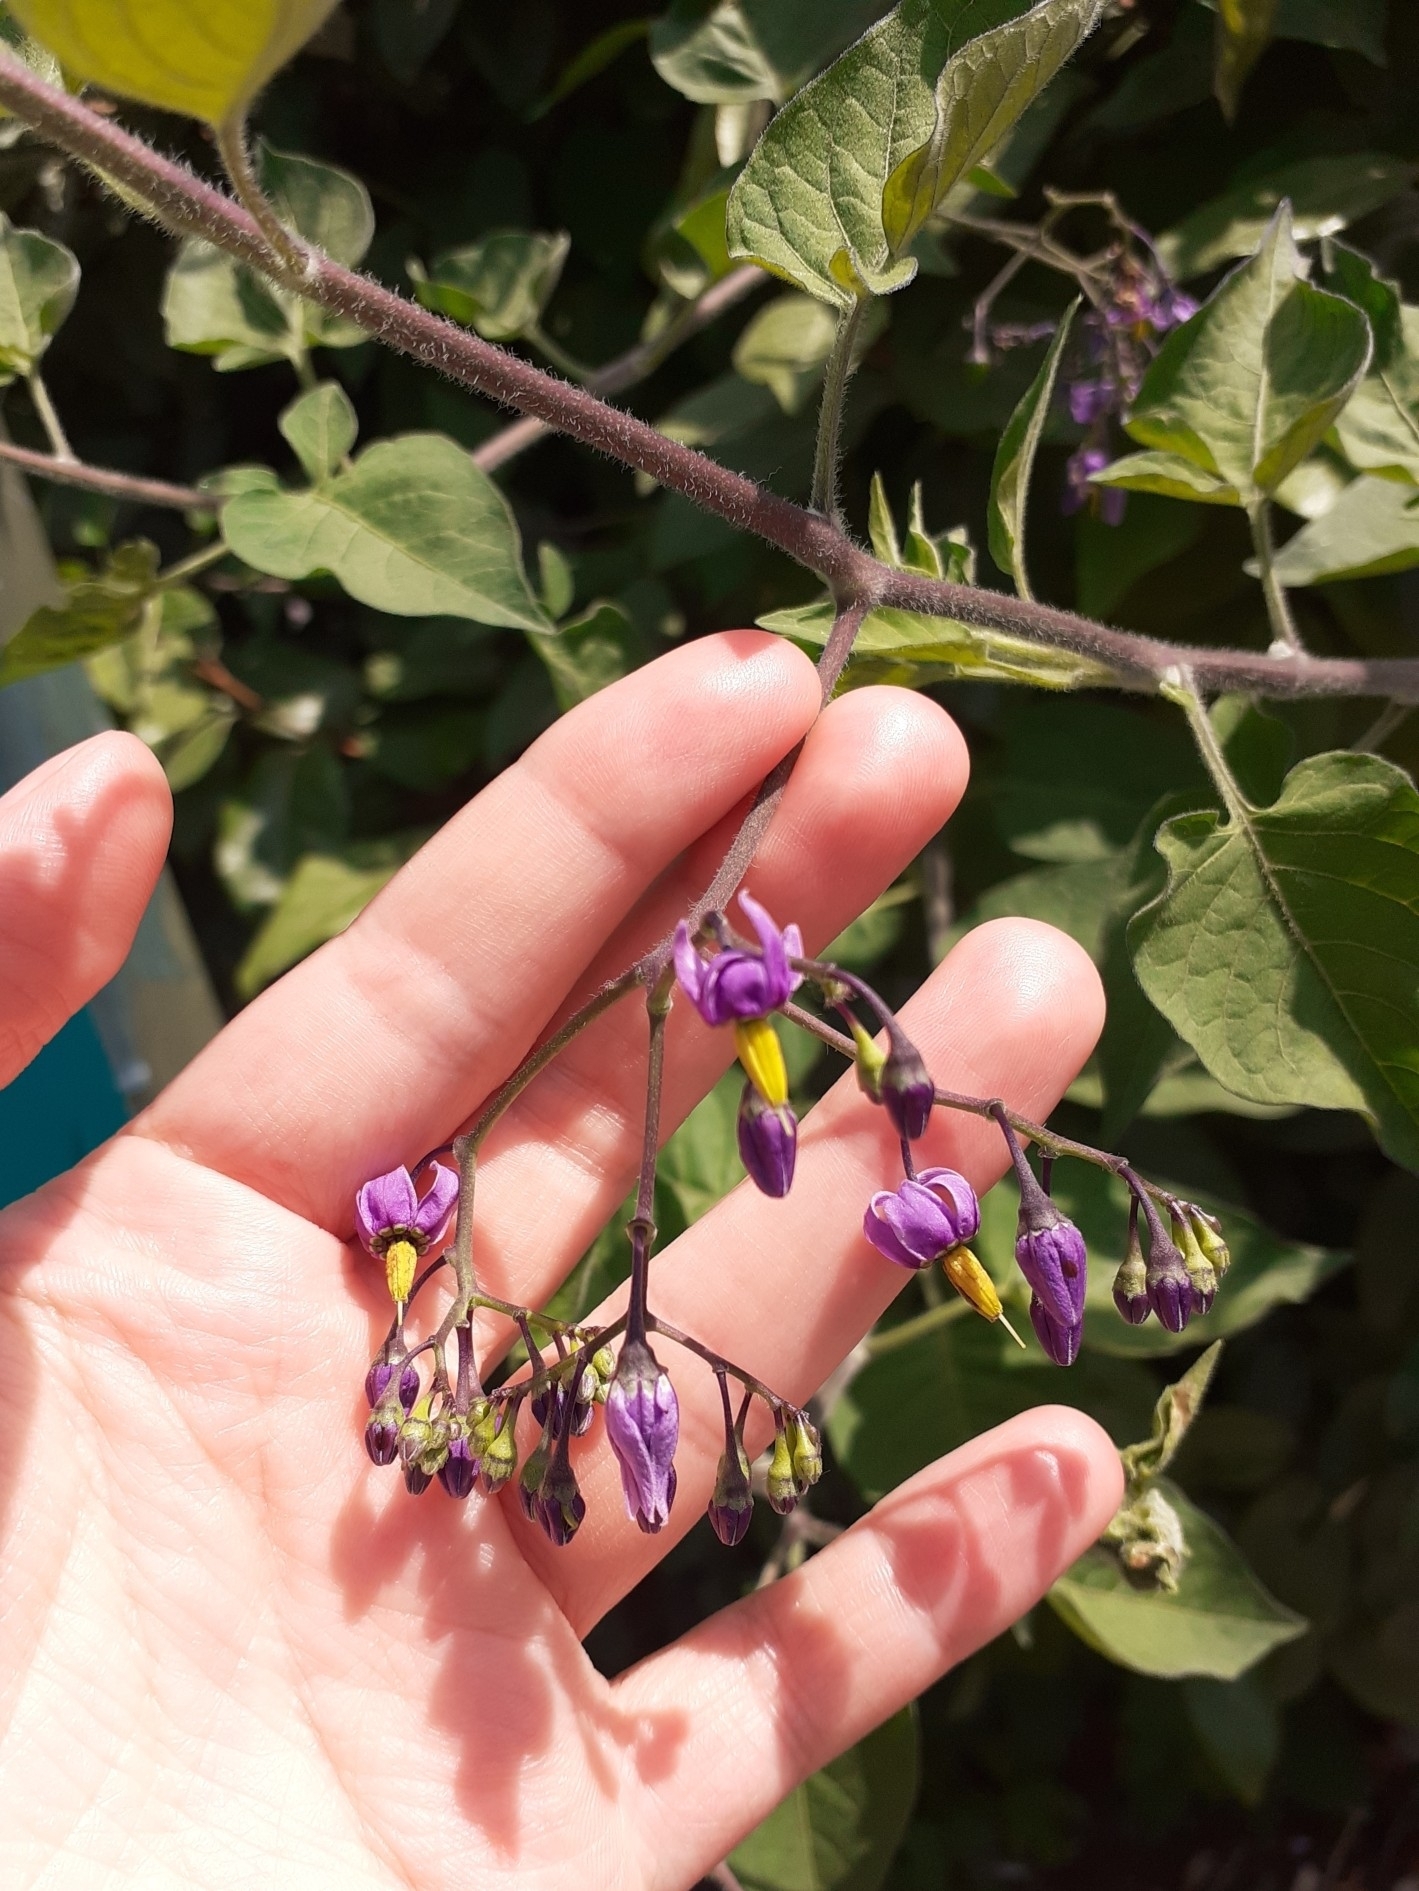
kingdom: Plantae
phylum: Tracheophyta
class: Magnoliopsida
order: Solanales
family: Solanaceae
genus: Solanum
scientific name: Solanum dulcamara
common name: Climbing nightshade
